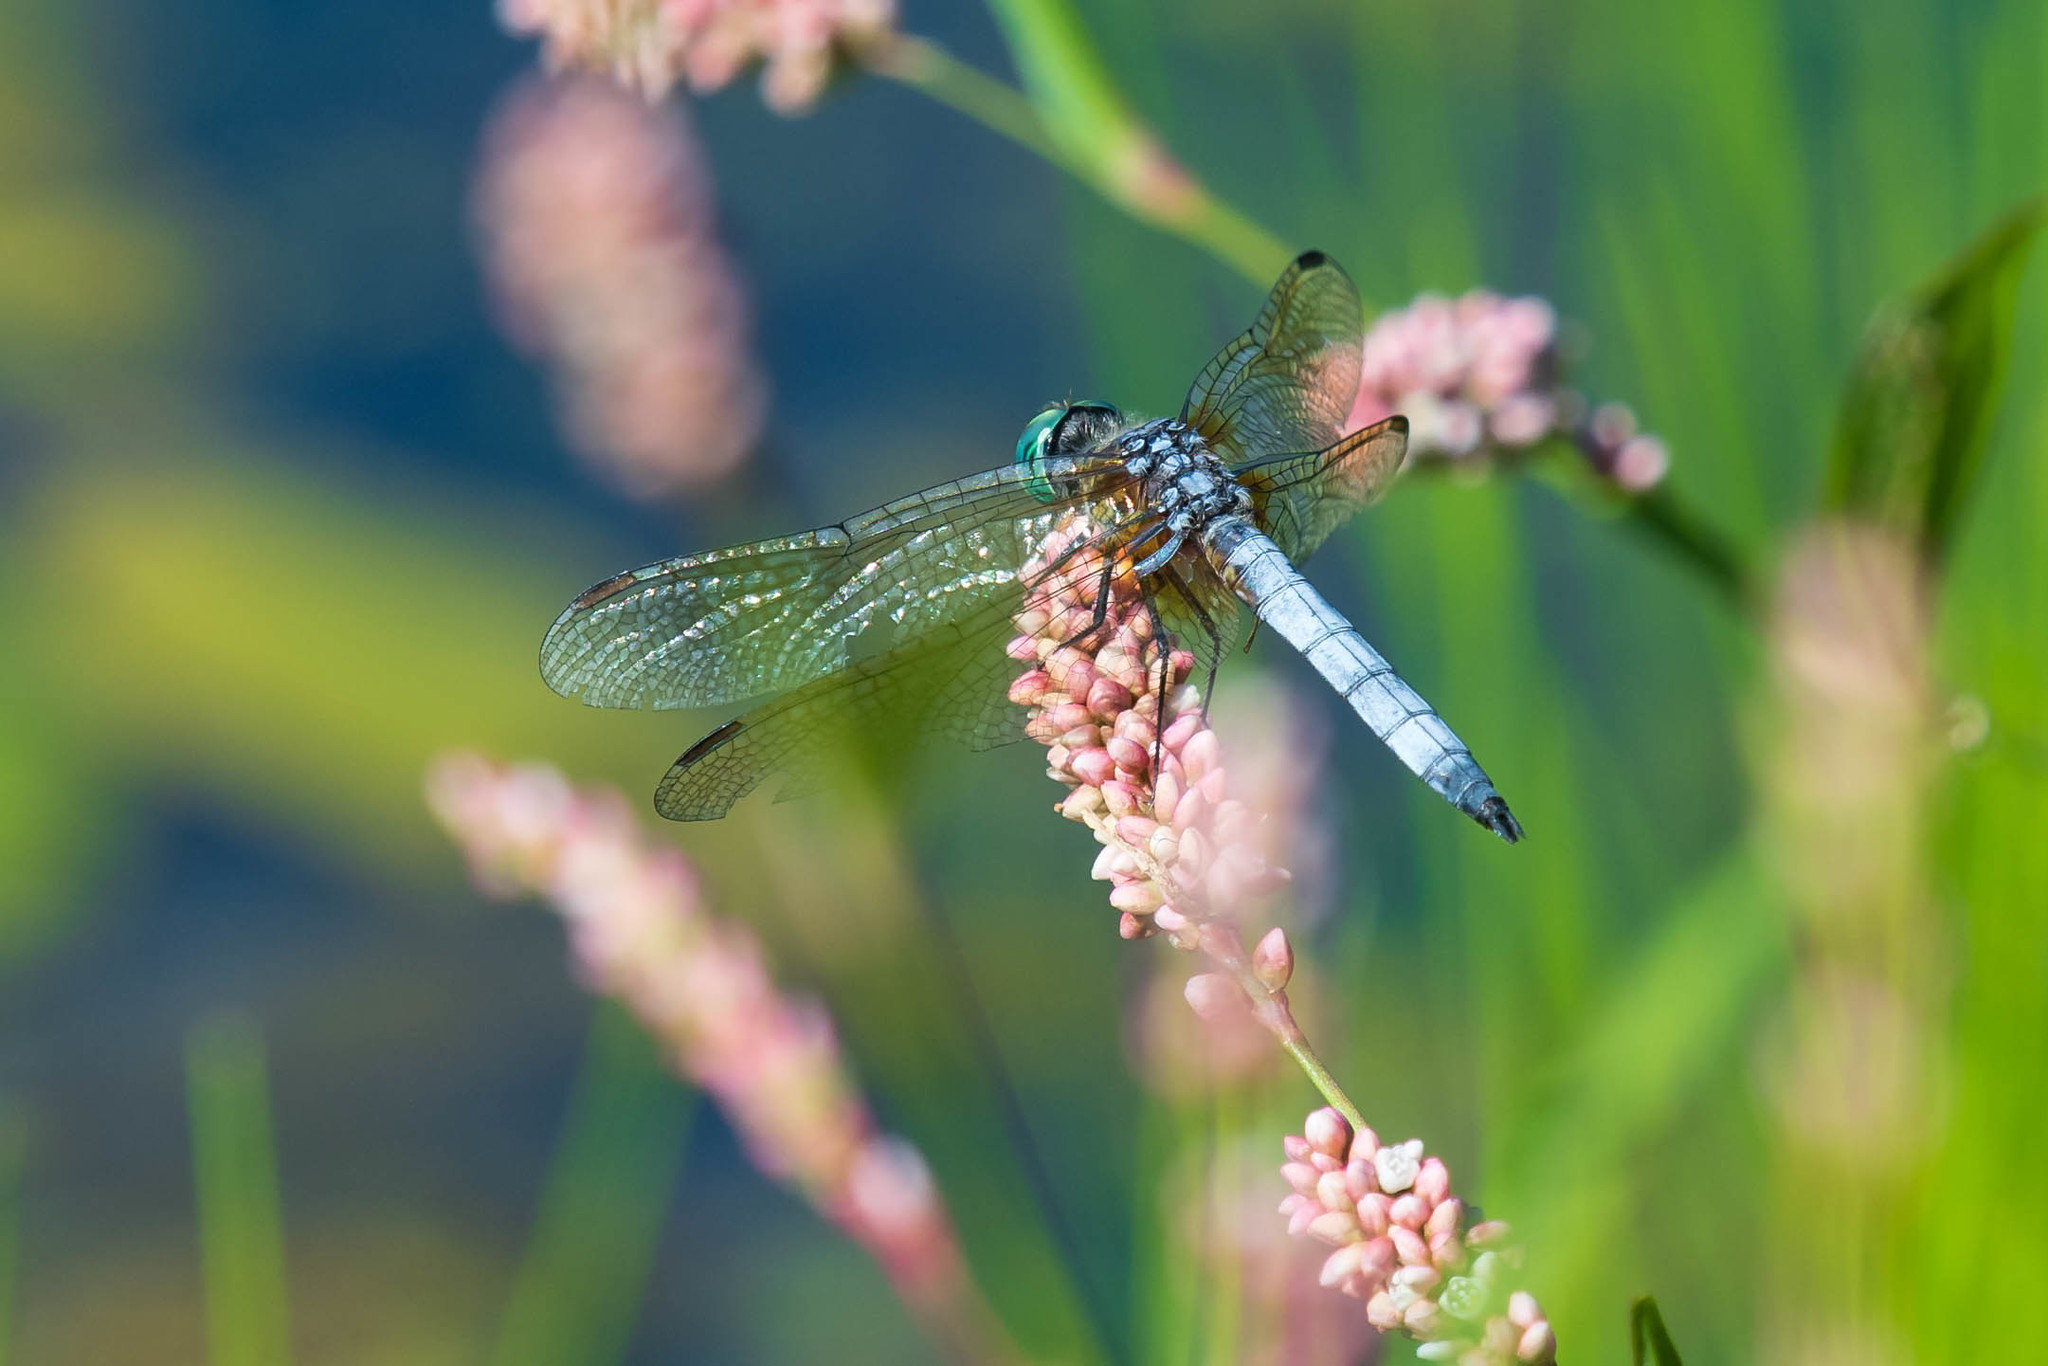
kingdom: Animalia
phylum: Arthropoda
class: Insecta
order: Odonata
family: Libellulidae
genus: Pachydiplax
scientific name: Pachydiplax longipennis
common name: Blue dasher
